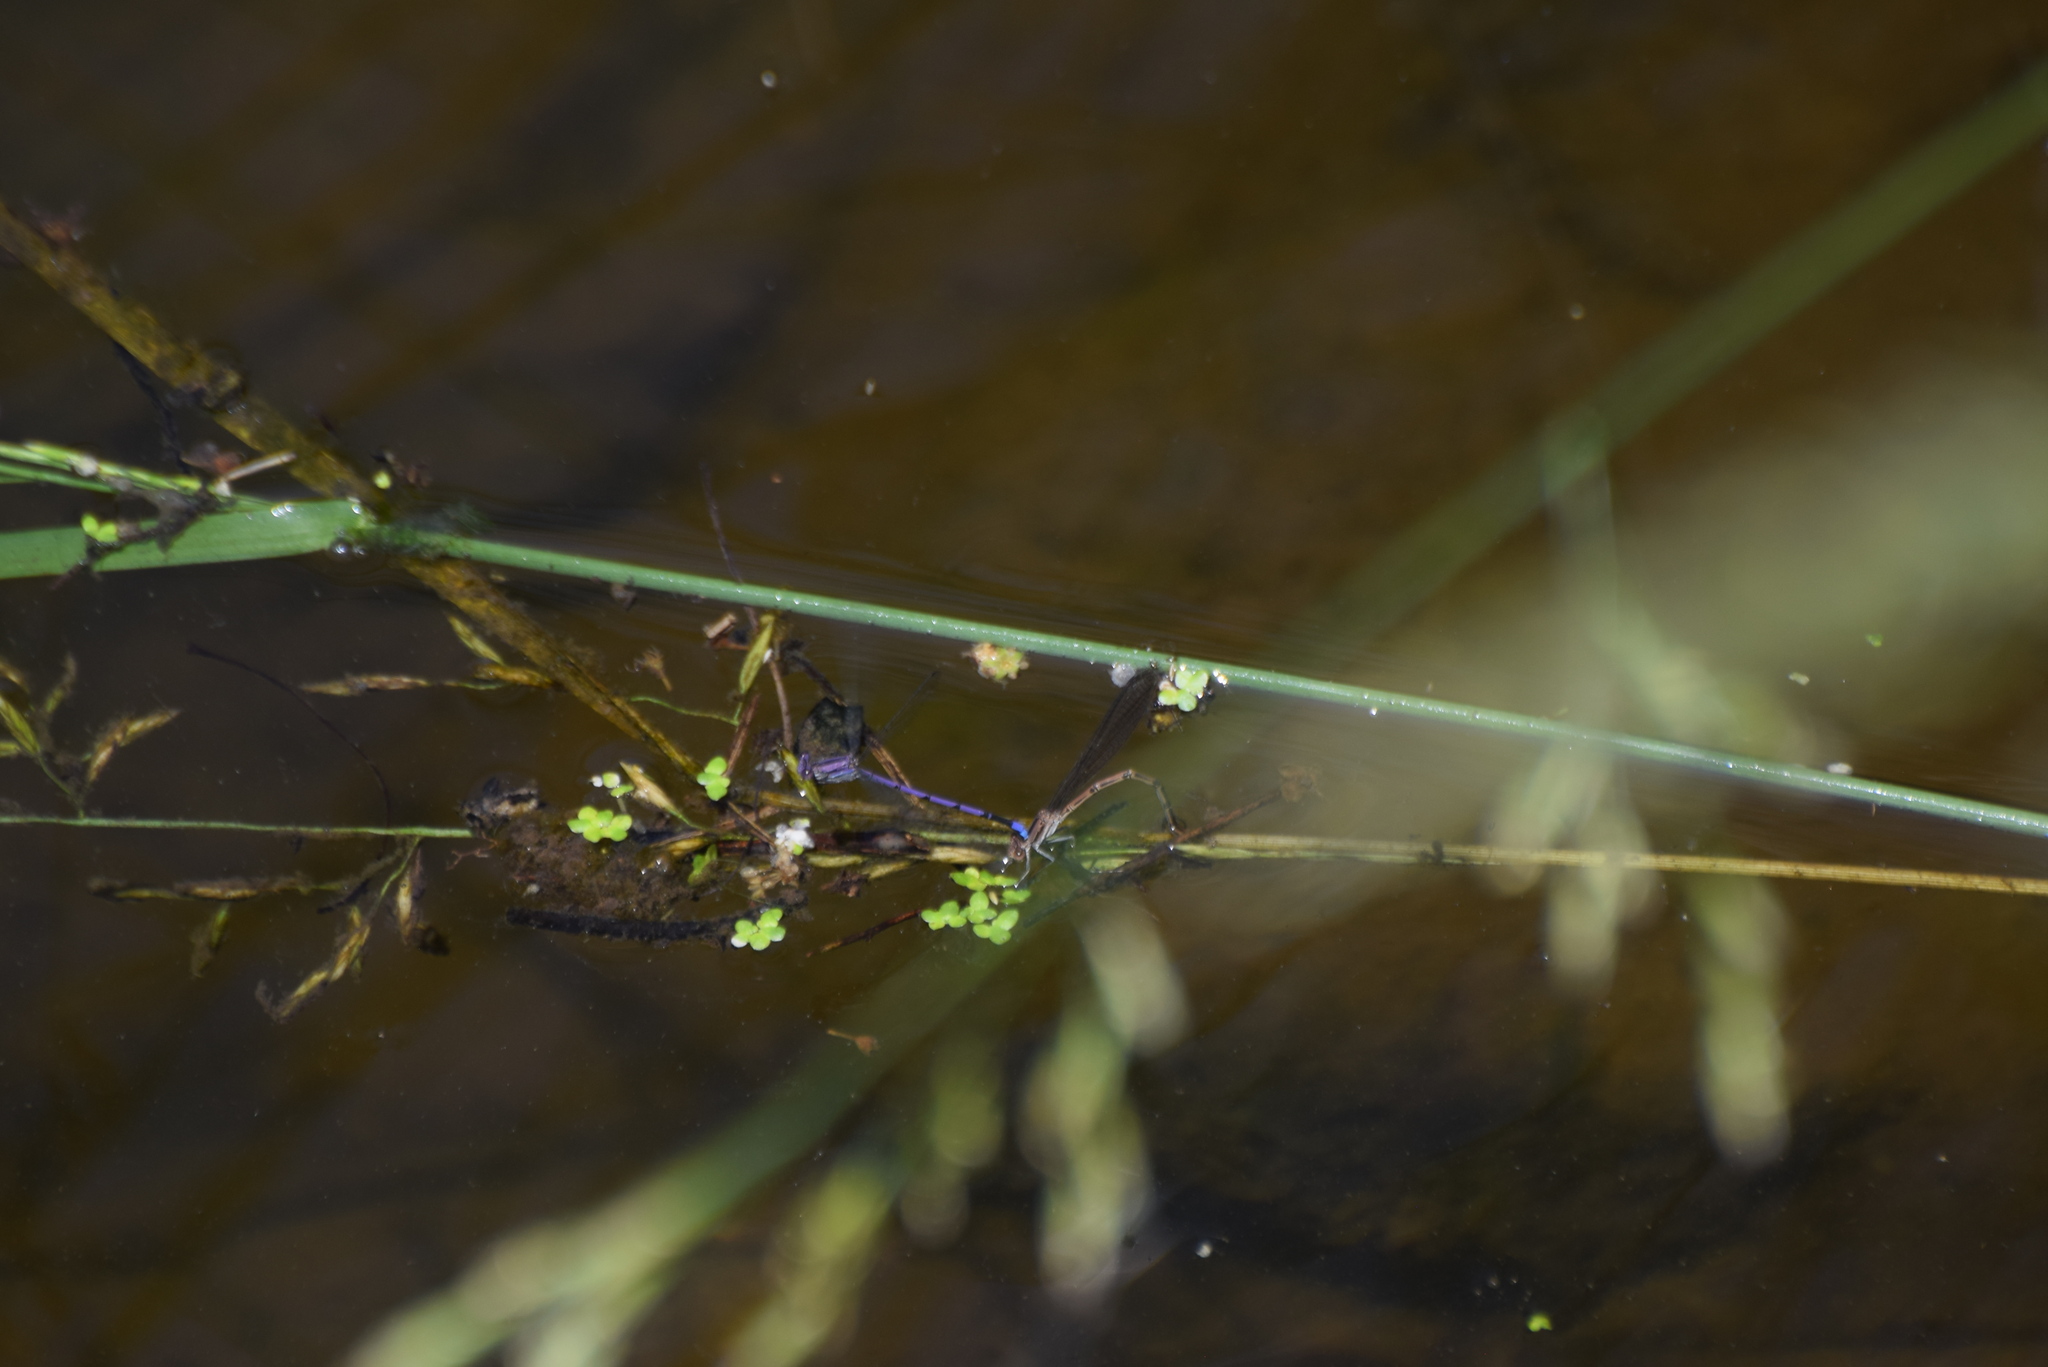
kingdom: Animalia
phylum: Arthropoda
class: Insecta
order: Odonata
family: Coenagrionidae
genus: Argia
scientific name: Argia fumipennis
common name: Variable dancer
